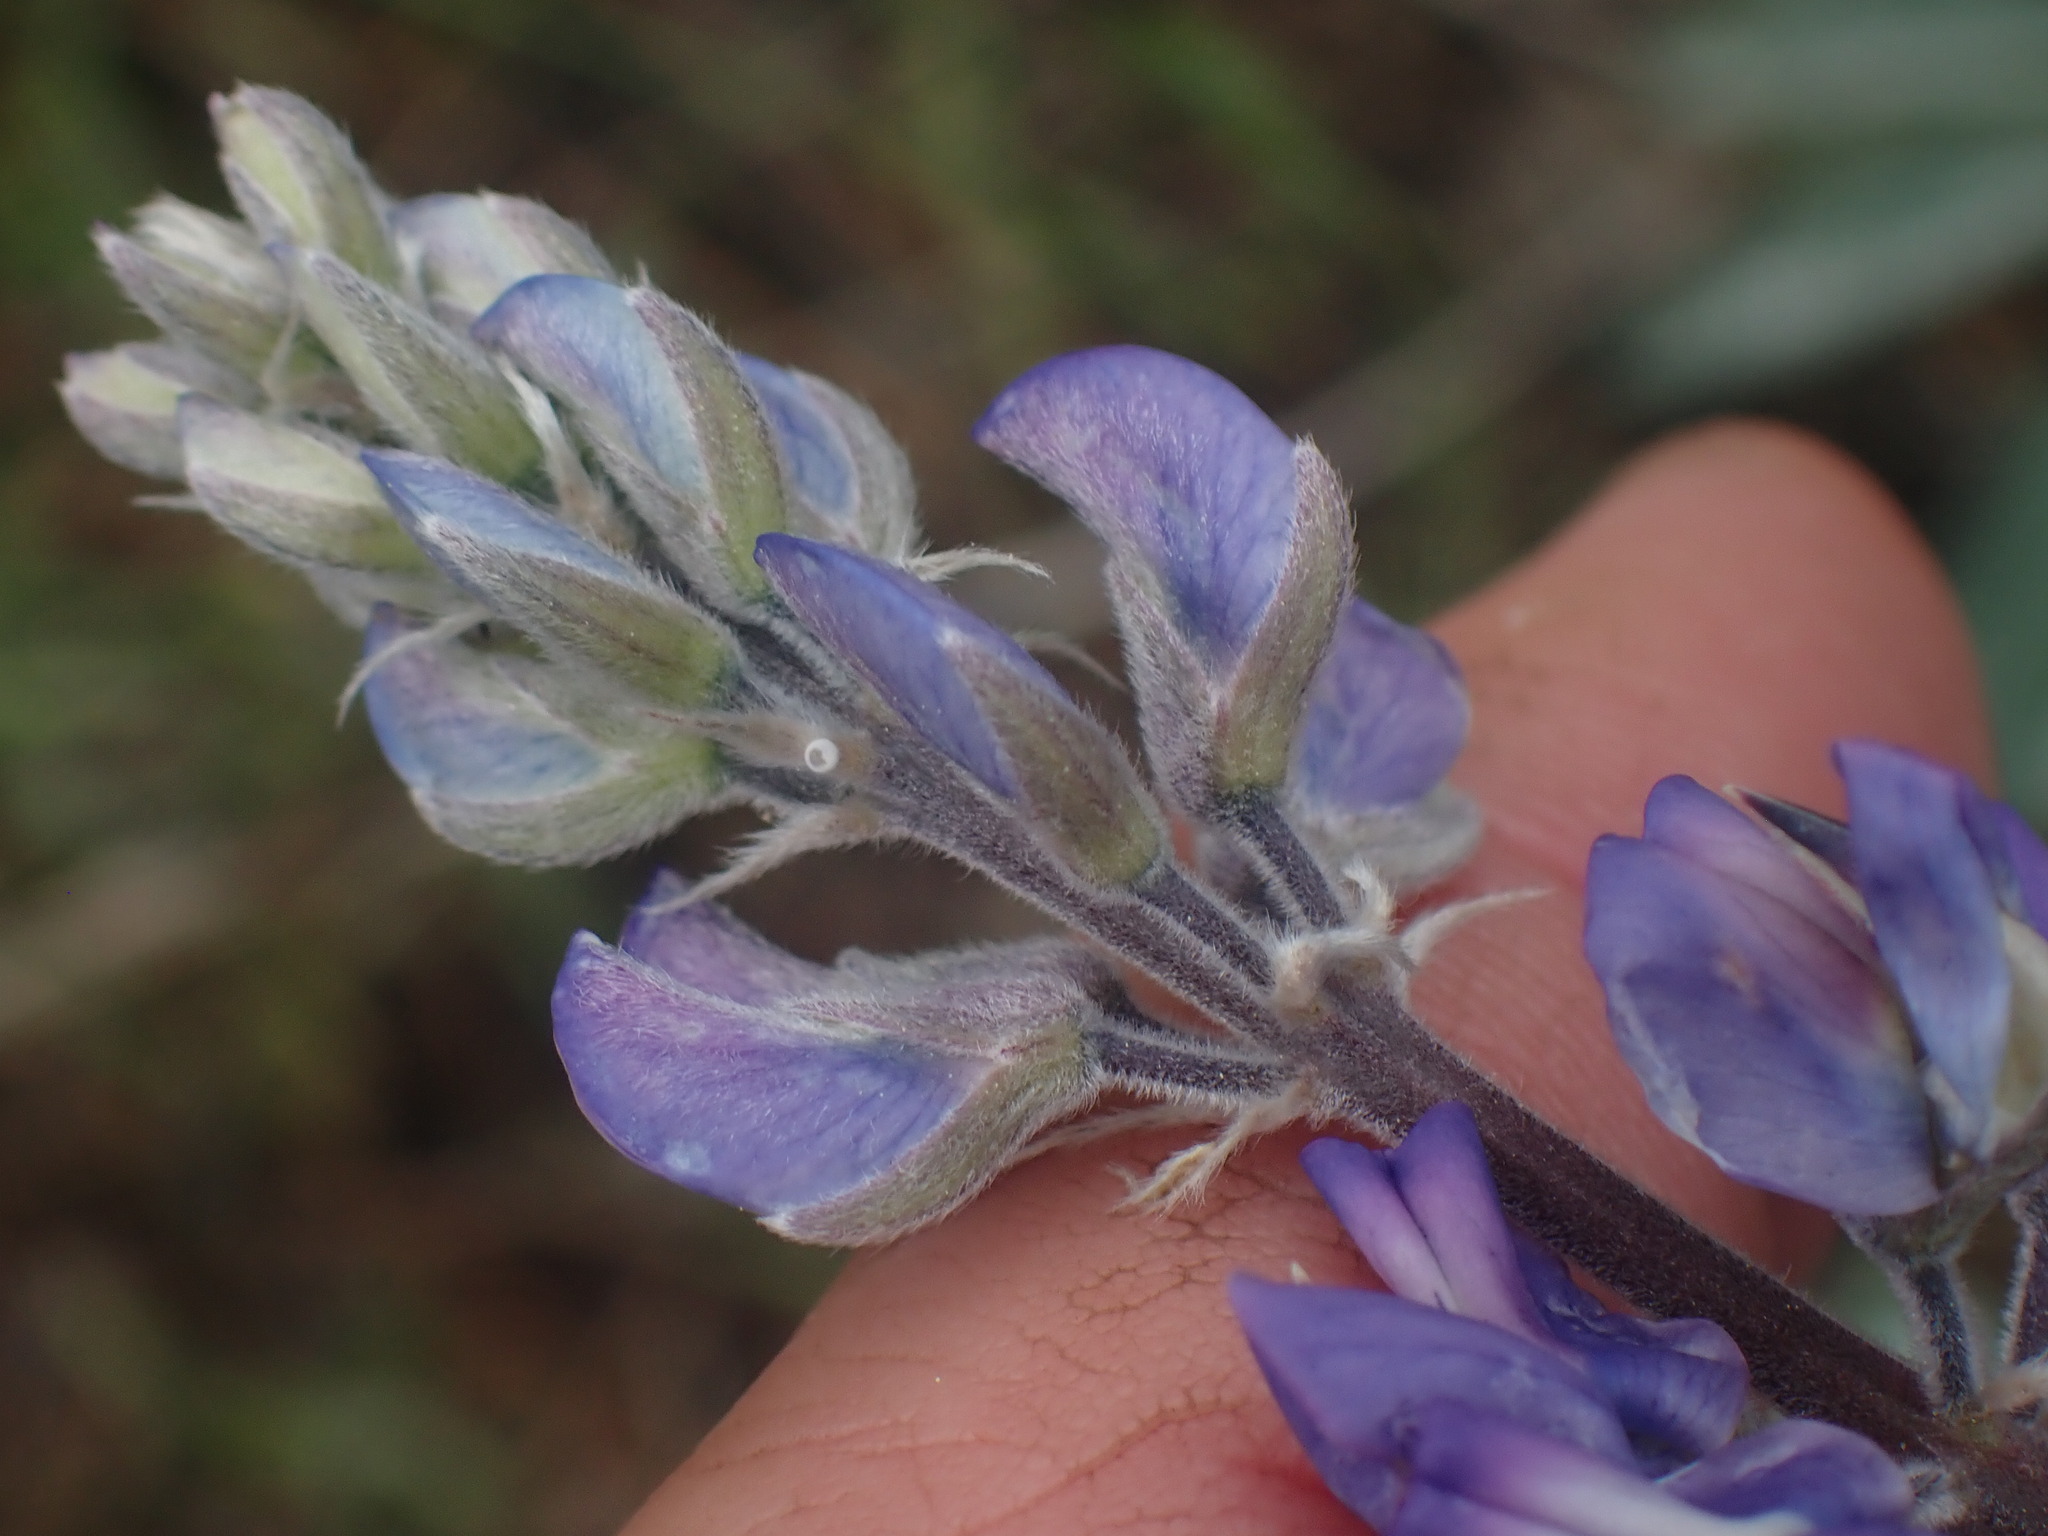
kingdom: Plantae
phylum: Tracheophyta
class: Magnoliopsida
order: Fabales
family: Fabaceae
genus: Lupinus
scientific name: Lupinus sericeus
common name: Silky lupine
